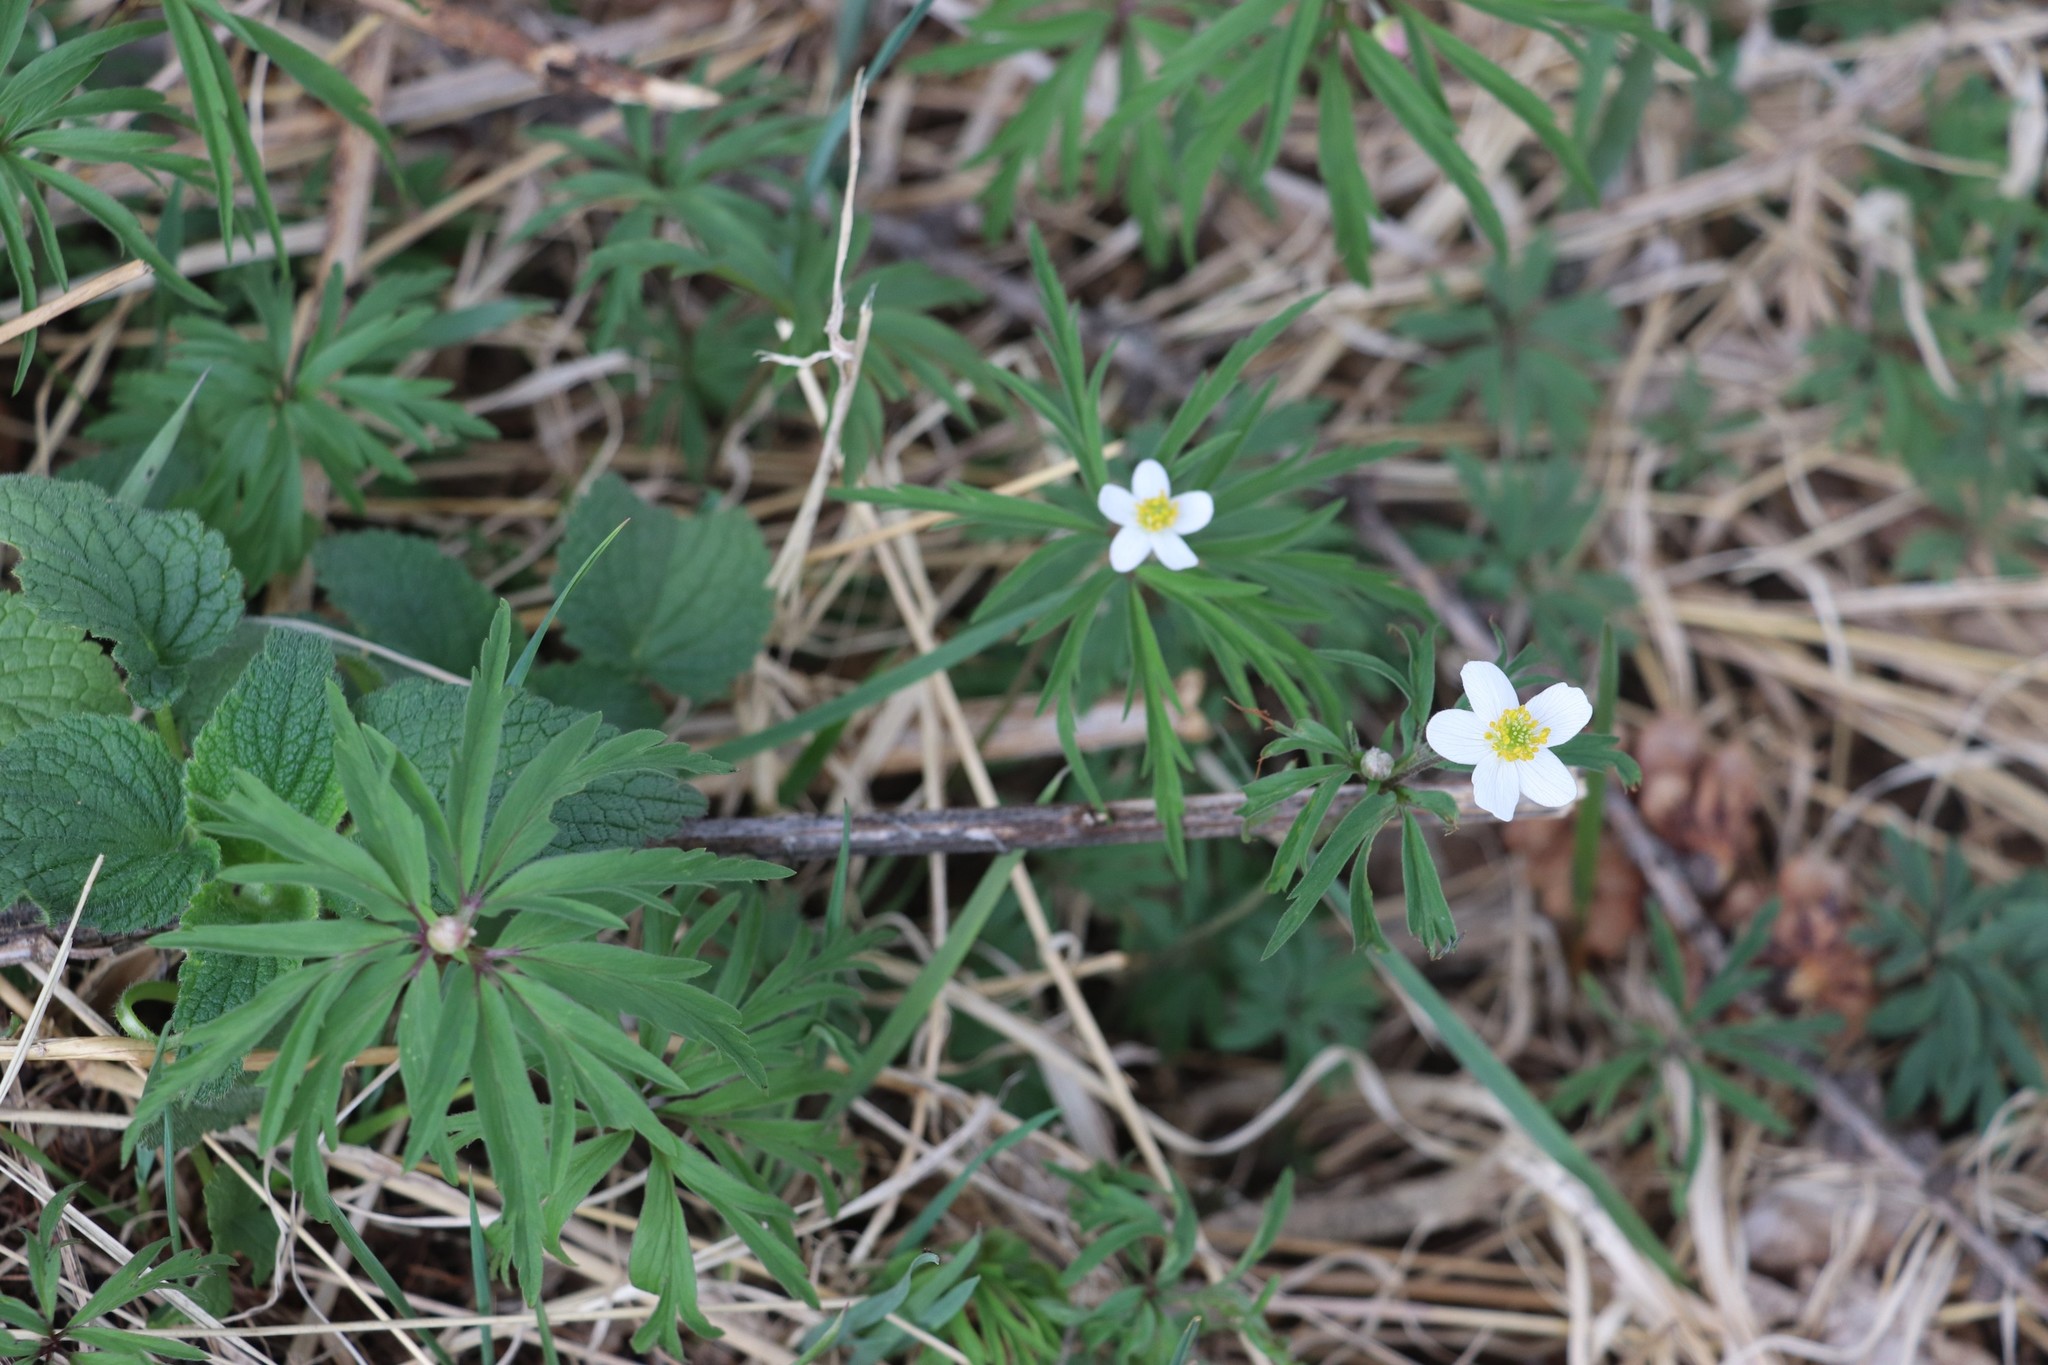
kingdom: Plantae
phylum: Tracheophyta
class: Magnoliopsida
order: Ranunculales
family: Ranunculaceae
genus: Anemone
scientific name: Anemone caerulea
